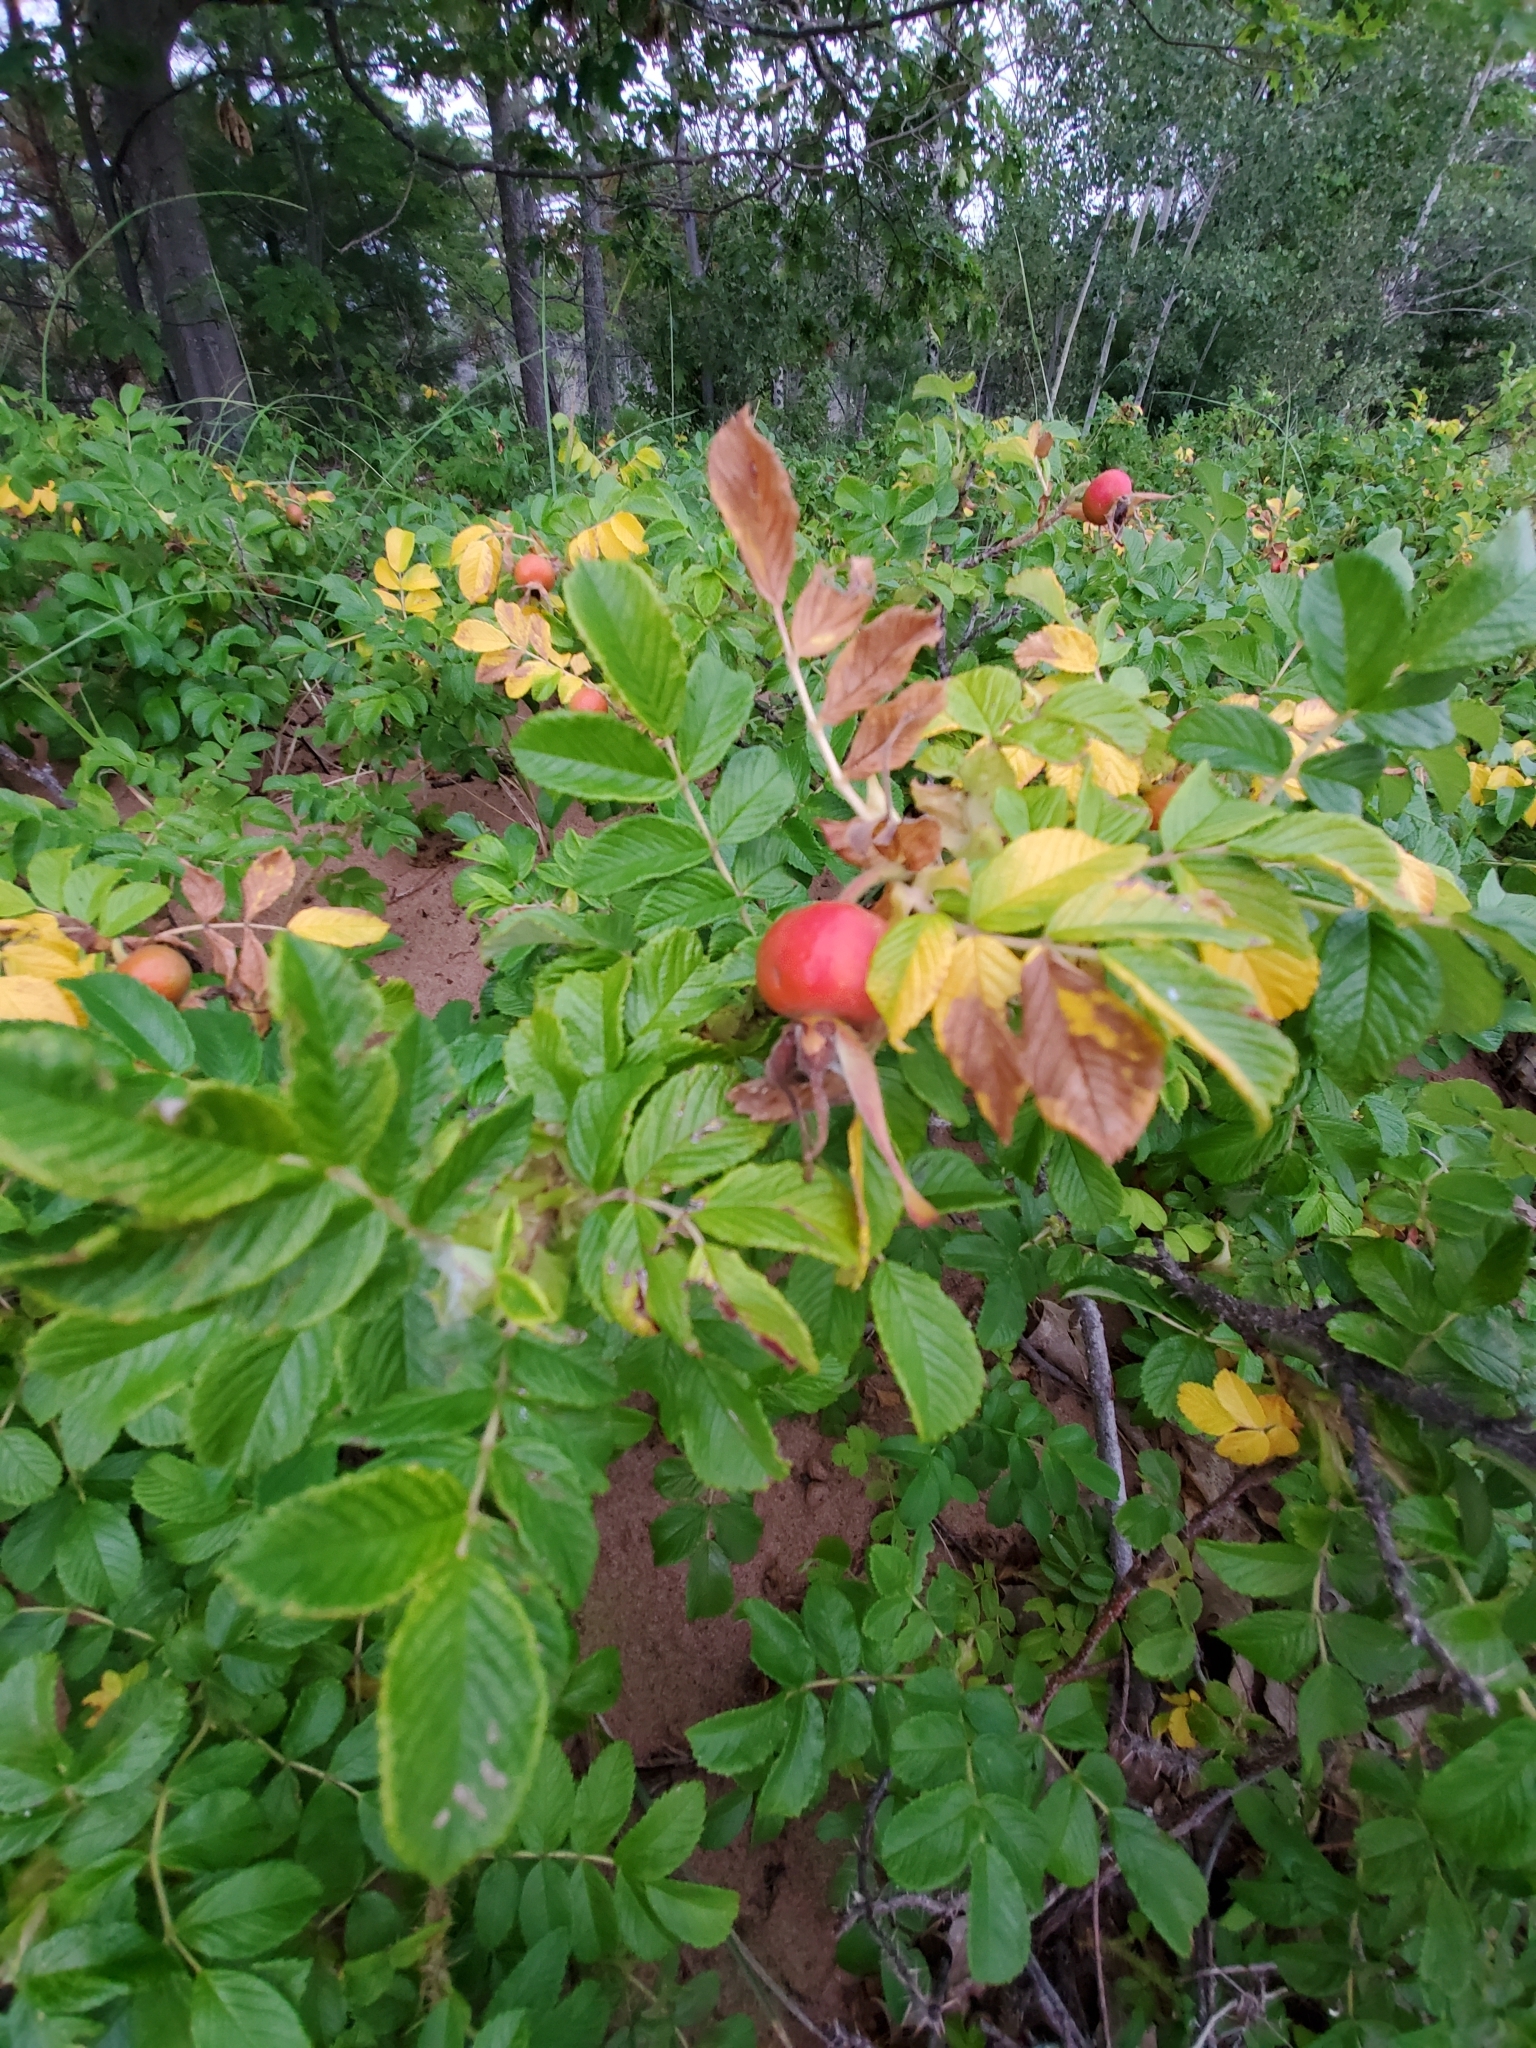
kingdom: Plantae
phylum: Tracheophyta
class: Magnoliopsida
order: Rosales
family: Rosaceae
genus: Rosa
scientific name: Rosa rugosa
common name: Japanese rose
